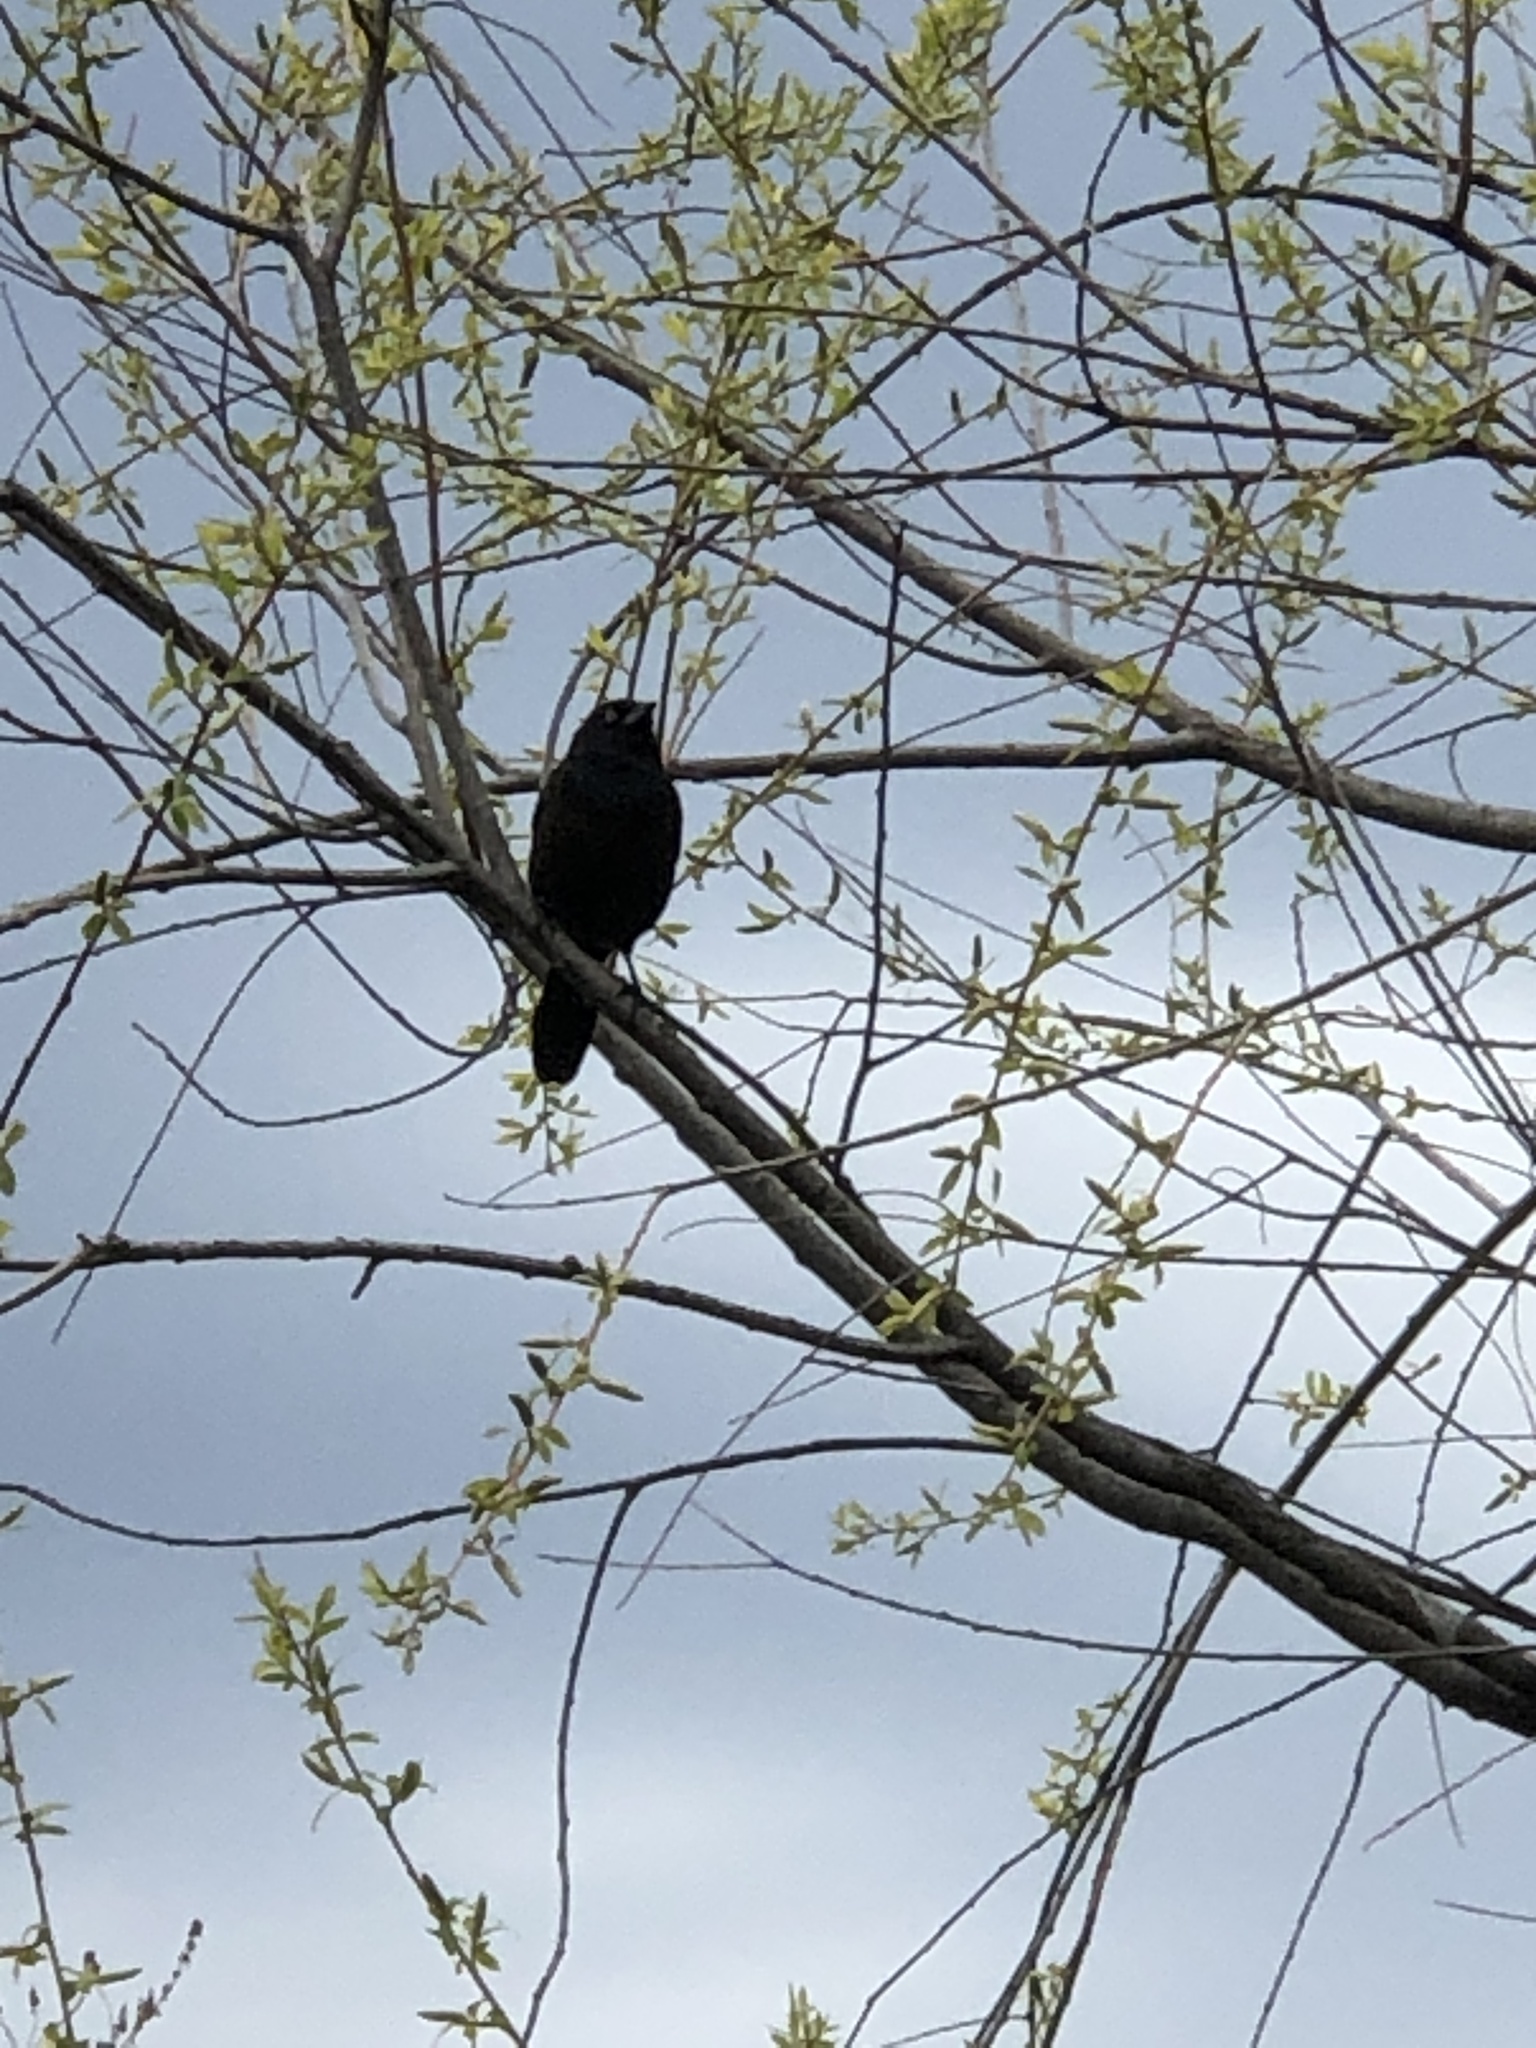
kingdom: Animalia
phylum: Chordata
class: Aves
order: Passeriformes
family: Icteridae
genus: Quiscalus
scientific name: Quiscalus quiscula
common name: Common grackle
